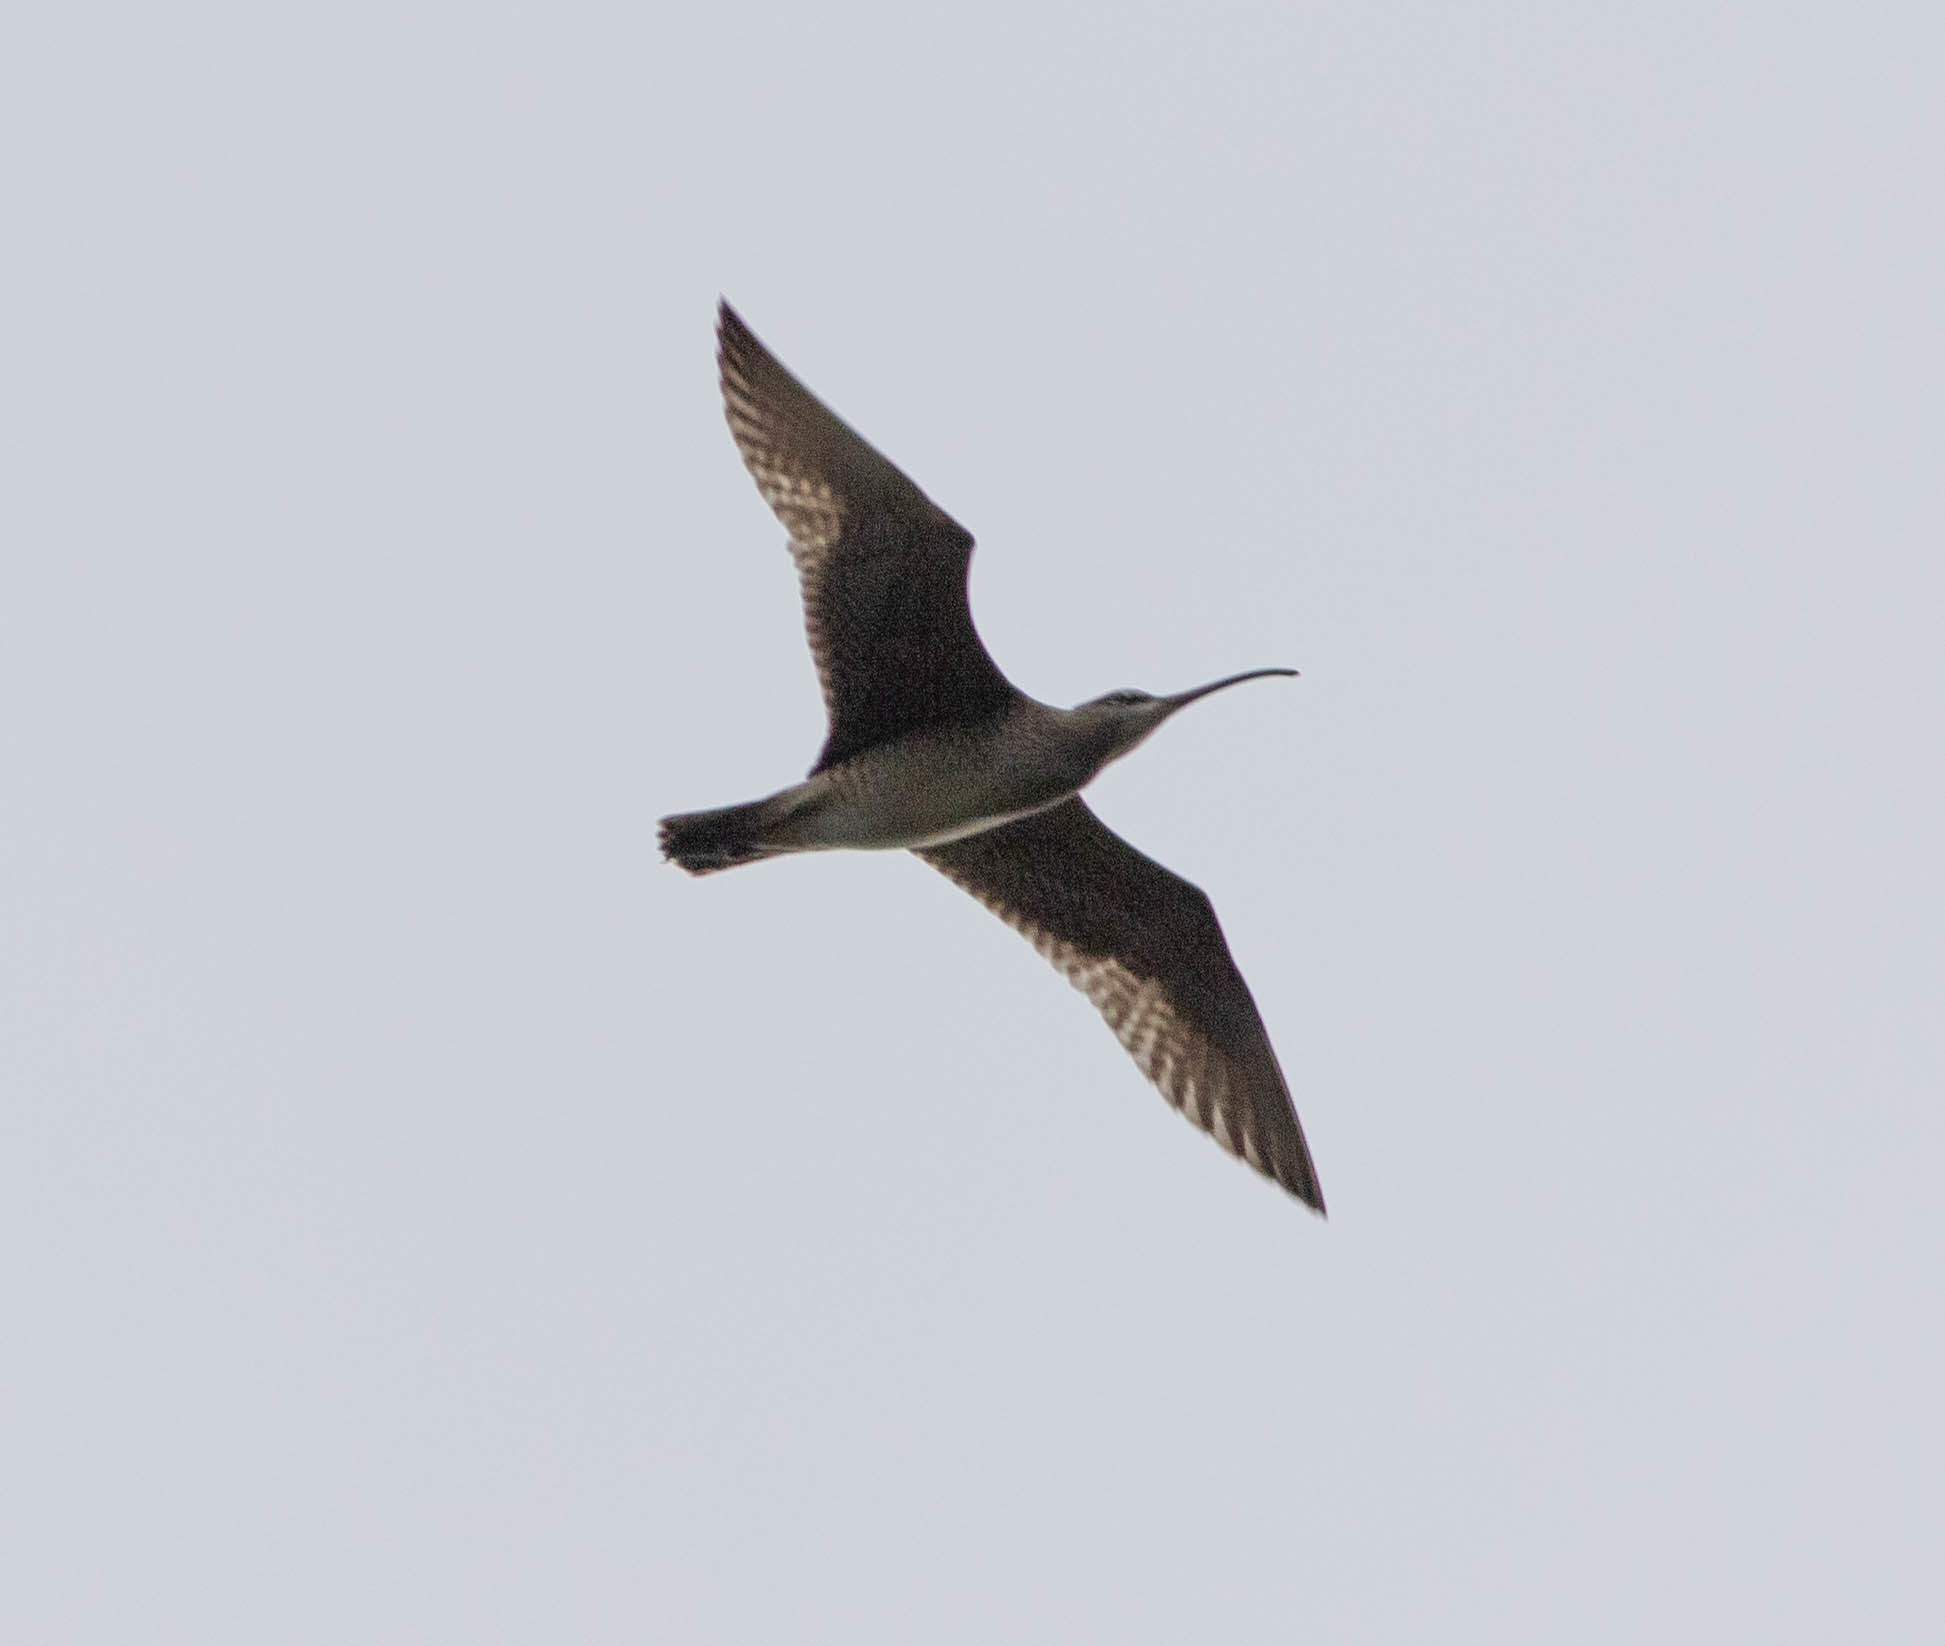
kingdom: Animalia
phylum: Chordata
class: Aves
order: Charadriiformes
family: Scolopacidae
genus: Numenius
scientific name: Numenius phaeopus
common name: Whimbrel
